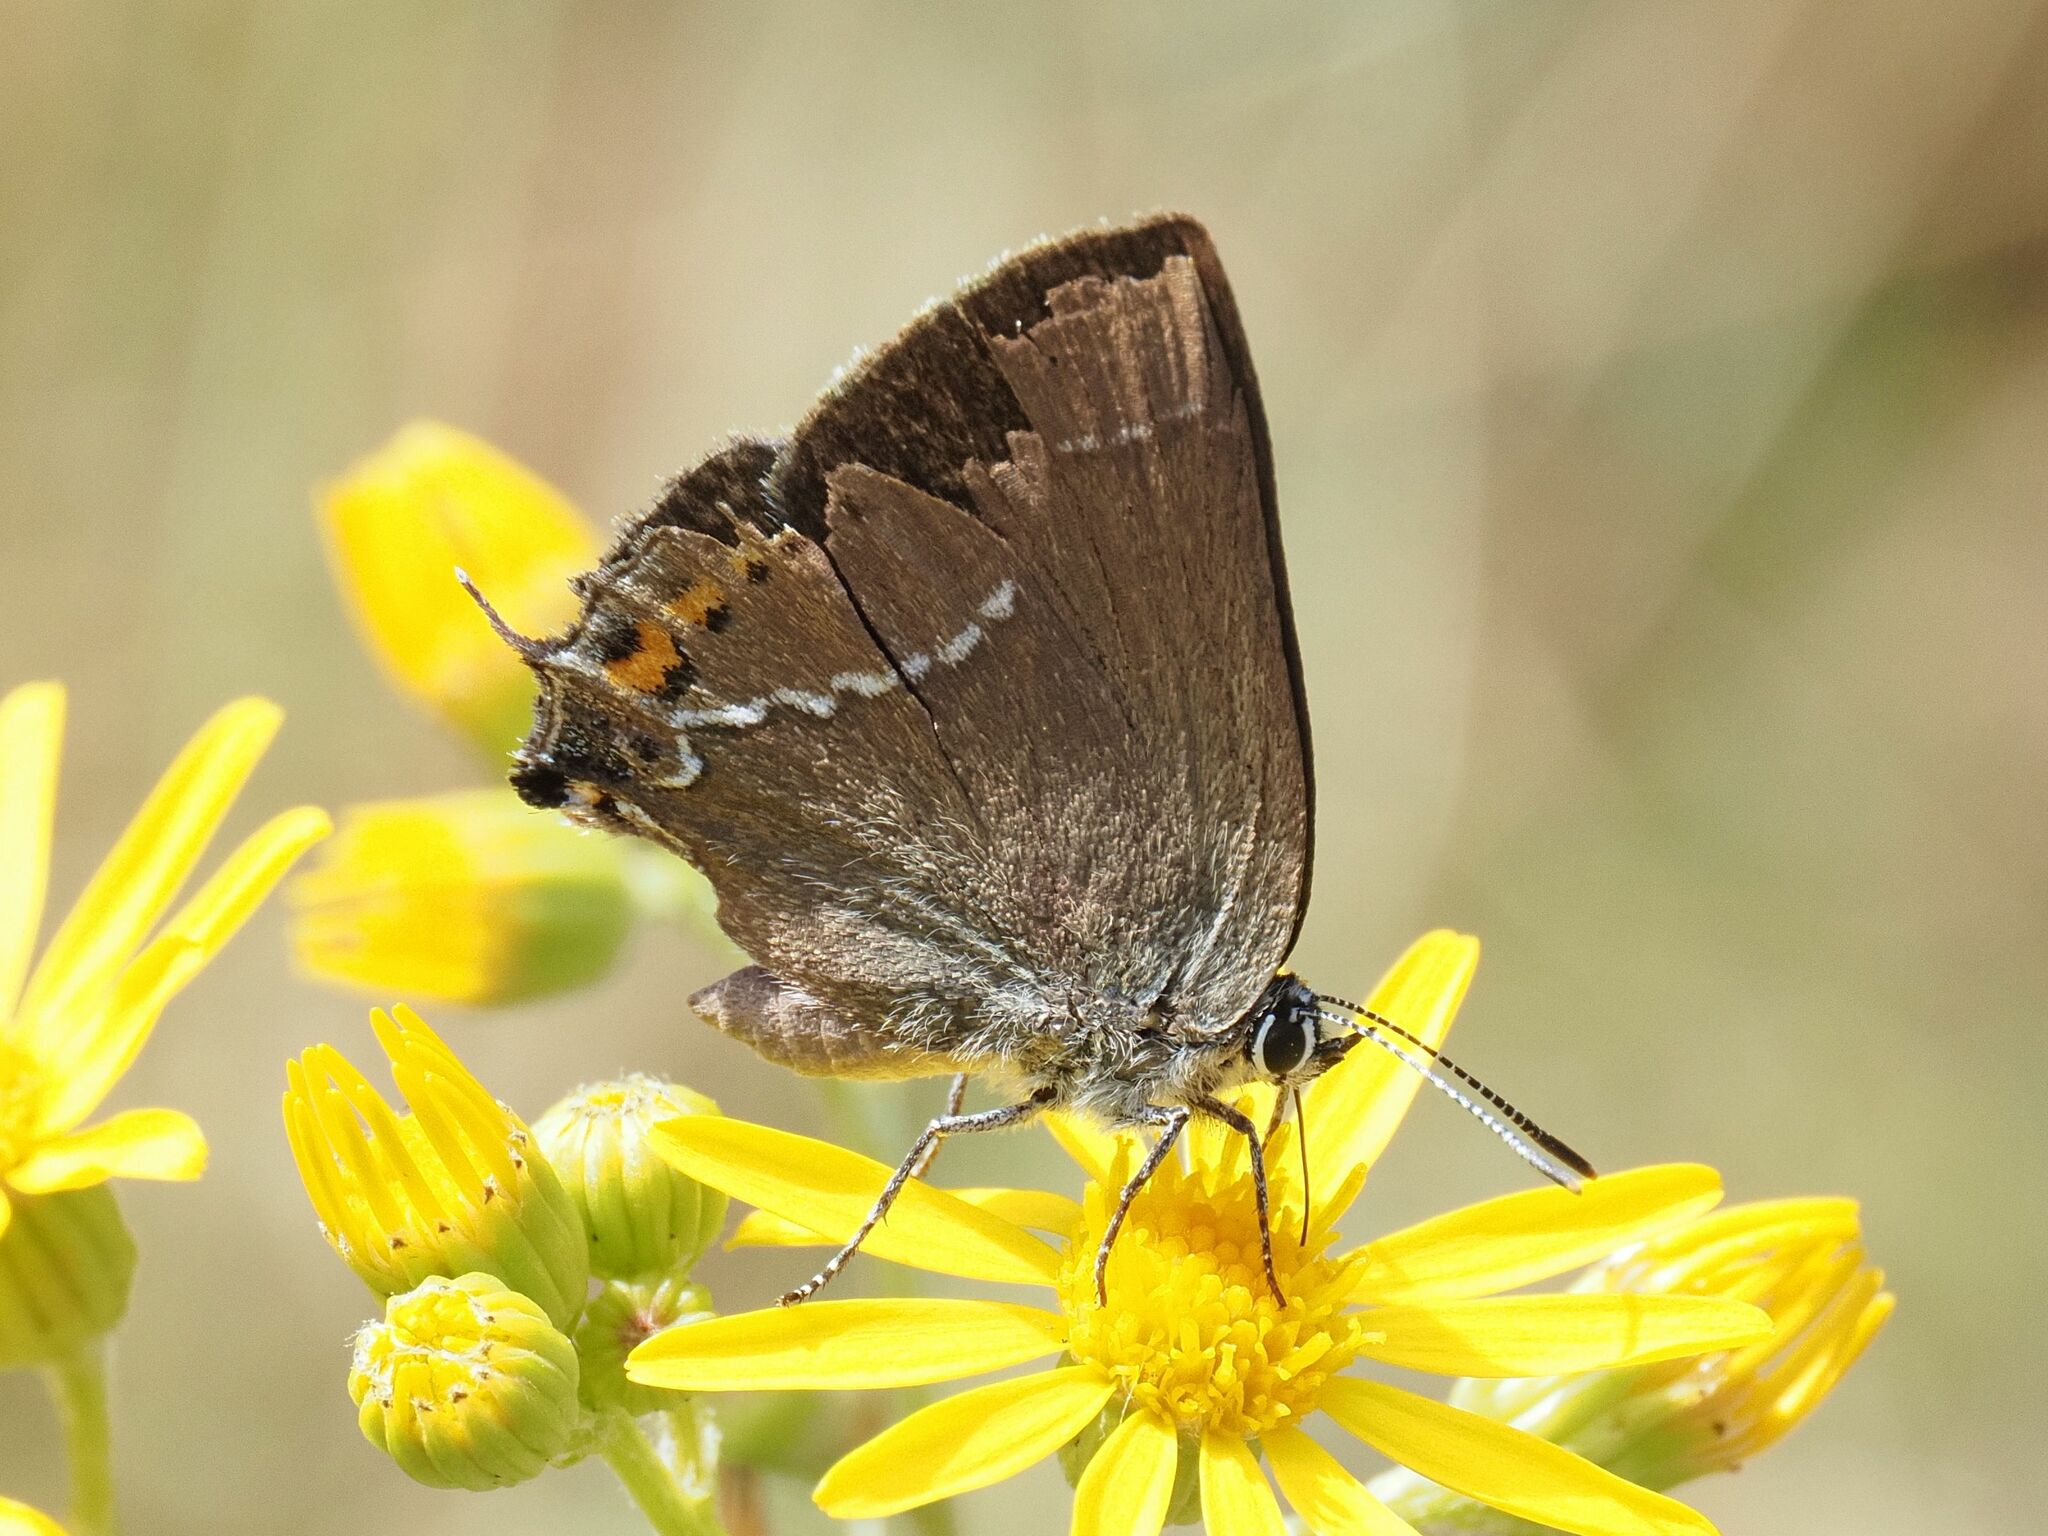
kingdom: Animalia
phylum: Arthropoda
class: Insecta
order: Lepidoptera
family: Lycaenidae
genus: Tuttiola
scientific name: Tuttiola spini
